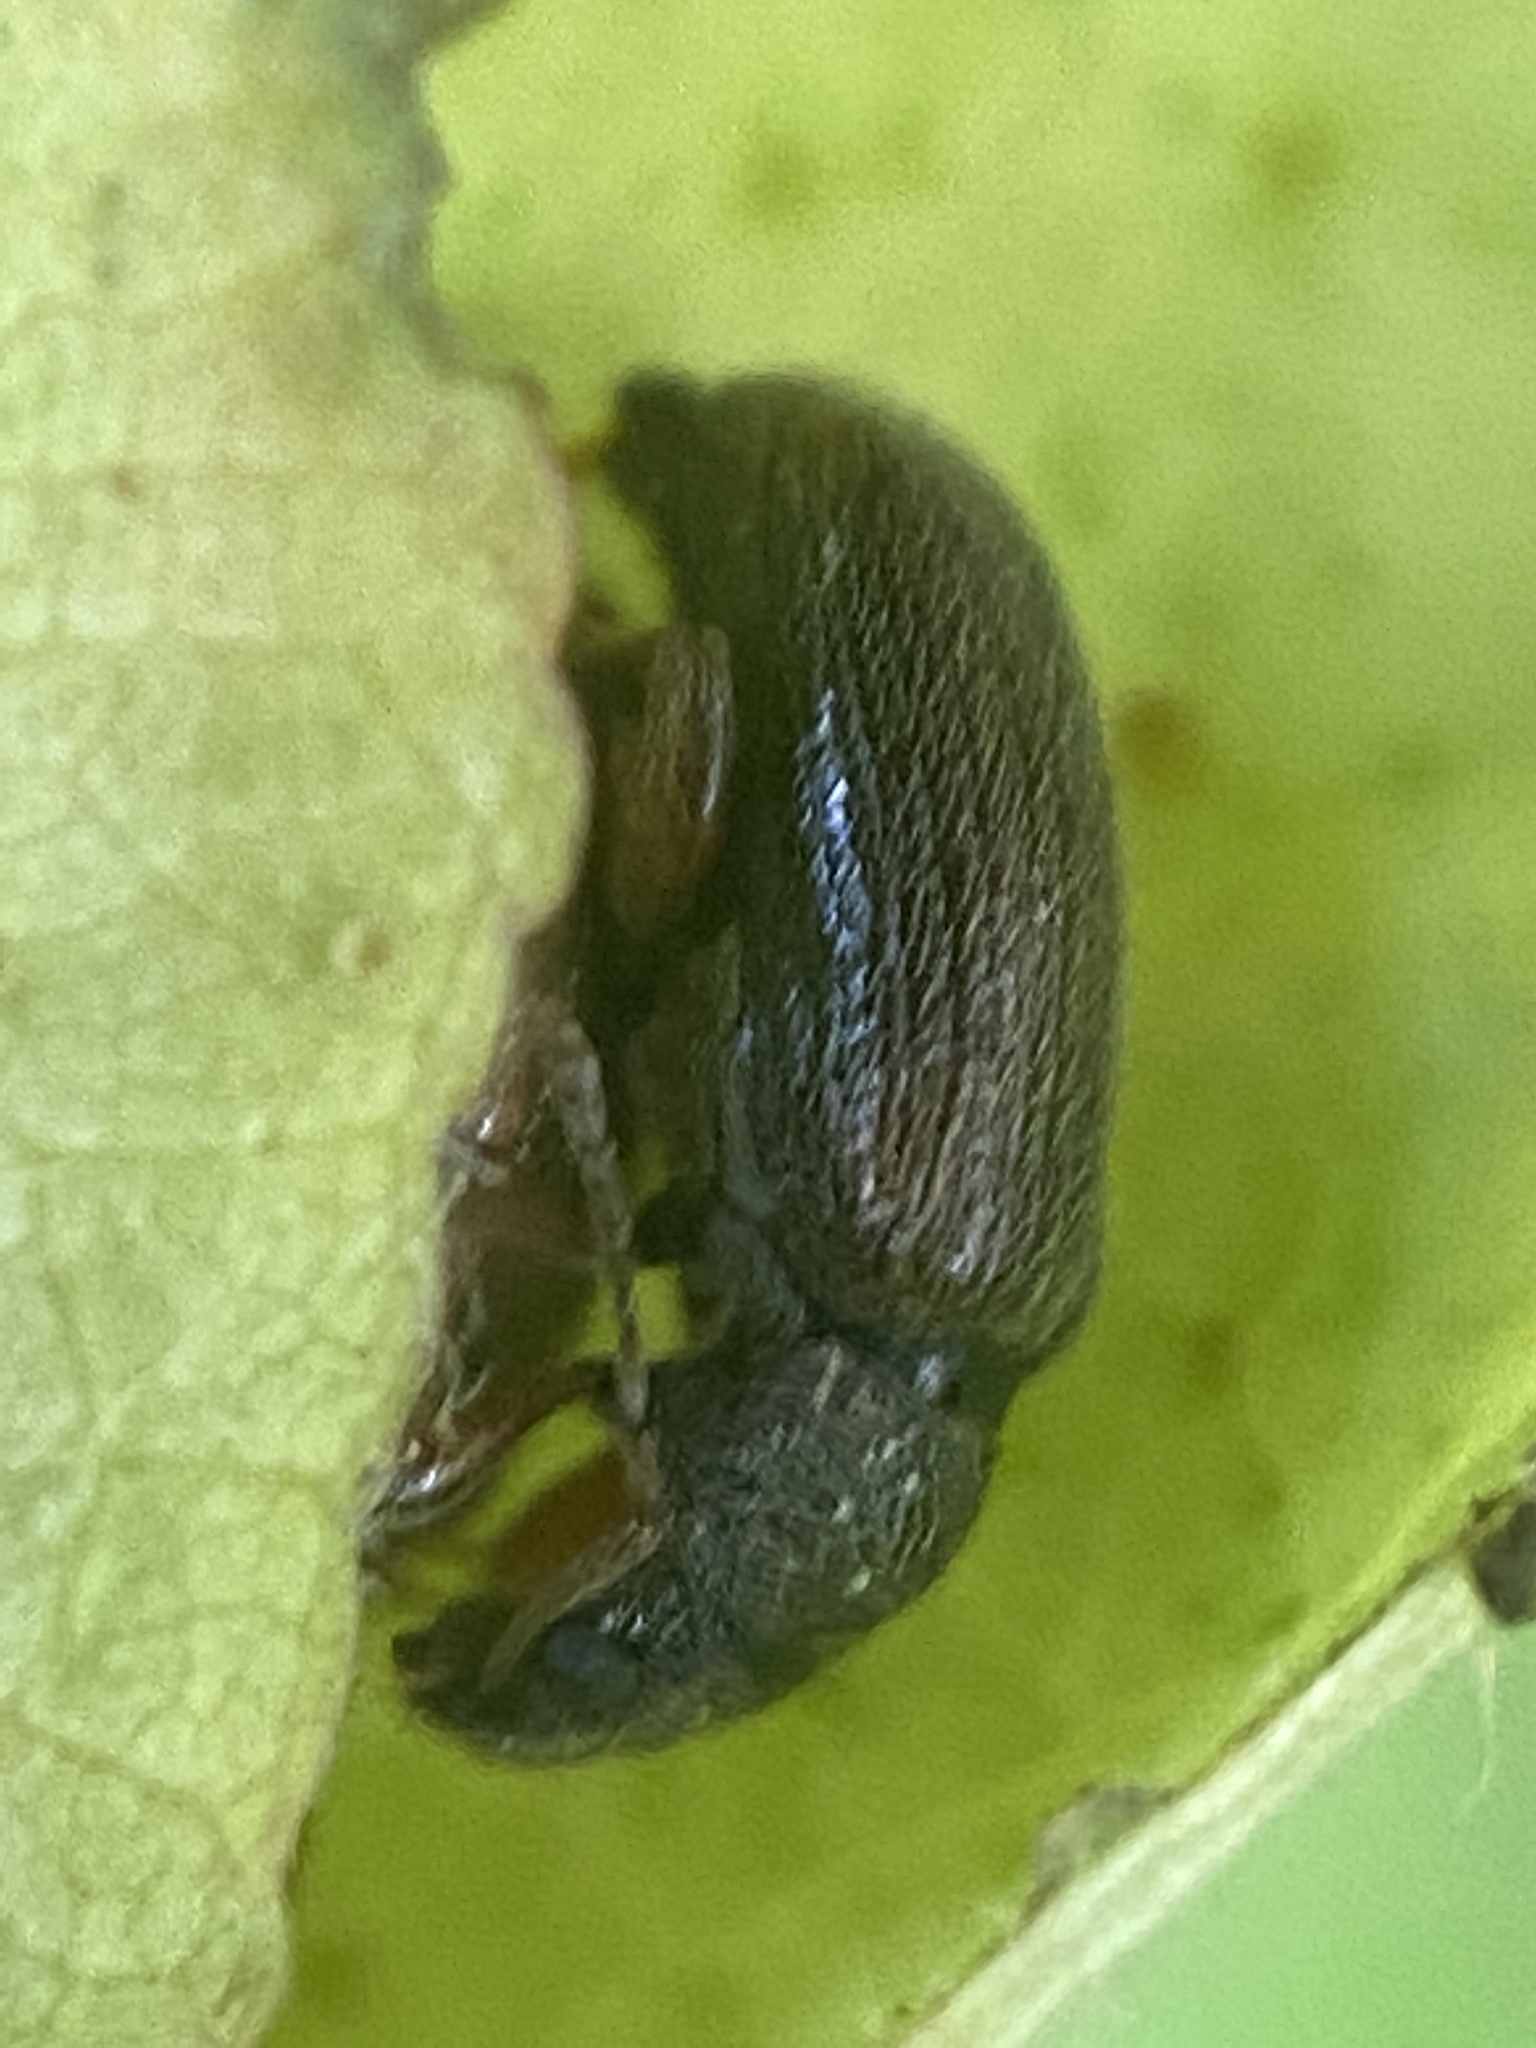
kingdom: Animalia
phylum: Arthropoda
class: Insecta
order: Coleoptera
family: Curculionidae
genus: Phyllobius
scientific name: Phyllobius oblongus
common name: Brown leaf weevil
